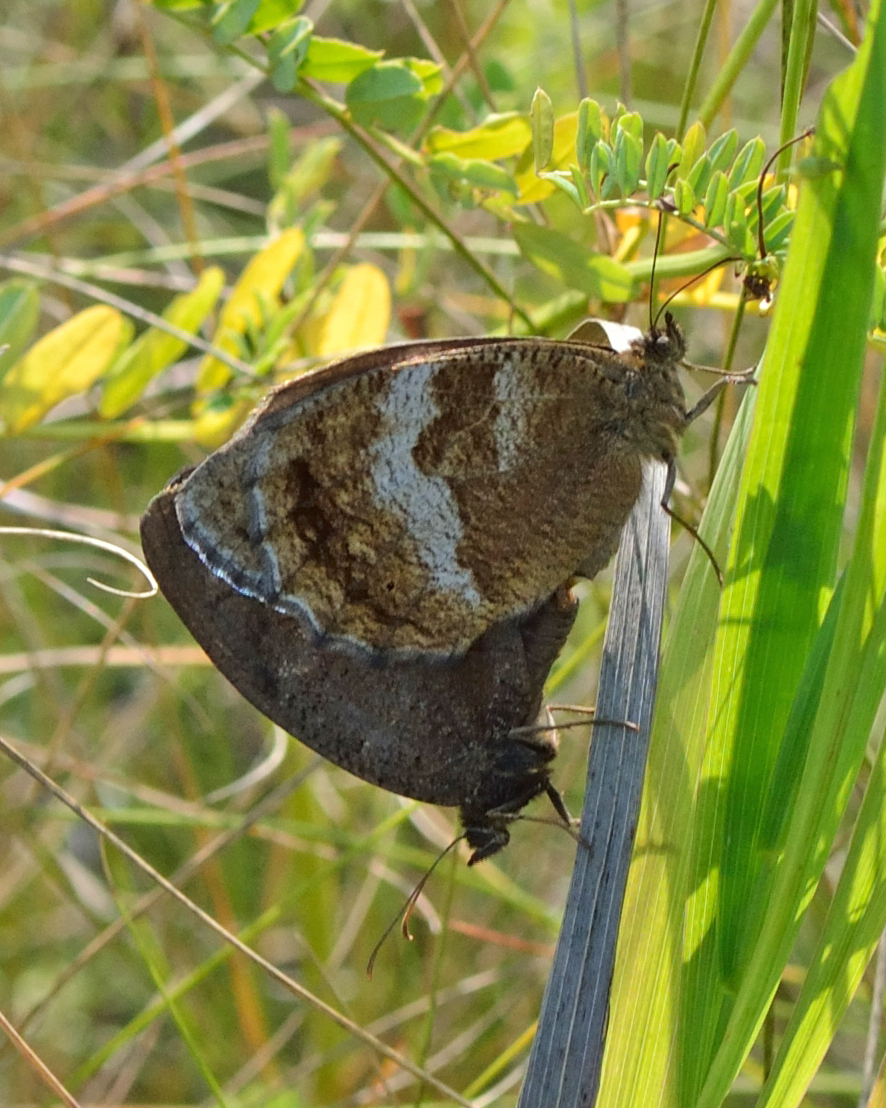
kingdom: Animalia
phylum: Arthropoda
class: Insecta
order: Lepidoptera
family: Nymphalidae
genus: Minois
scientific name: Minois dryas
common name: Dryad
